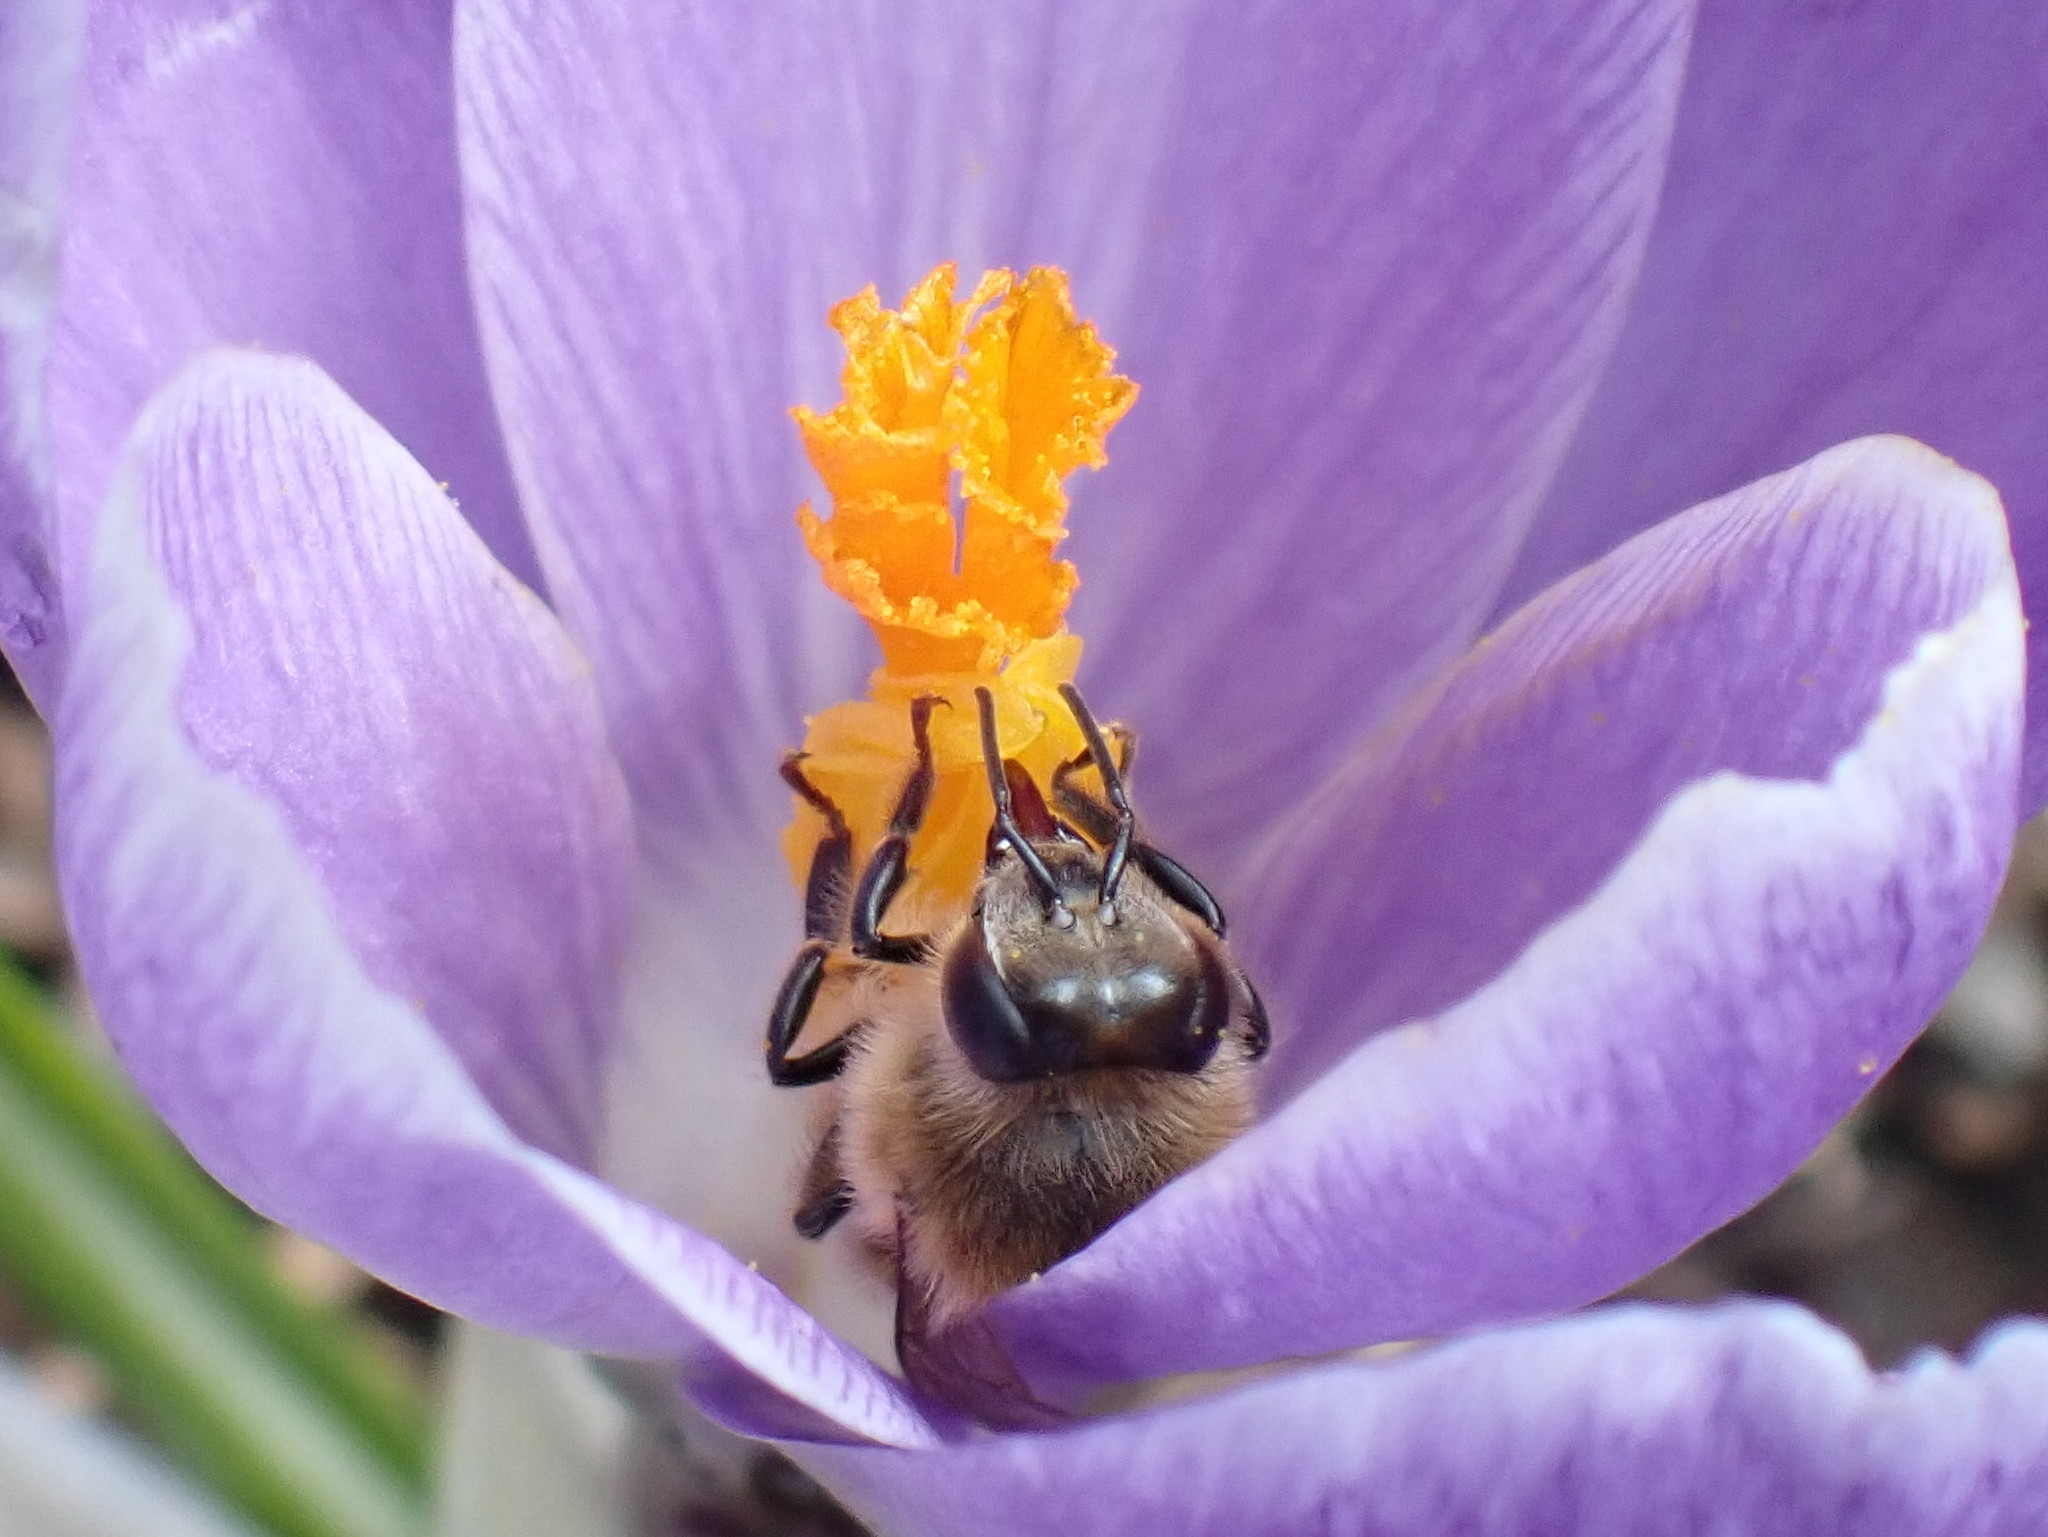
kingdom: Animalia
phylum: Arthropoda
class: Insecta
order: Hymenoptera
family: Apidae
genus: Apis
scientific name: Apis mellifera
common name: Honey bee
